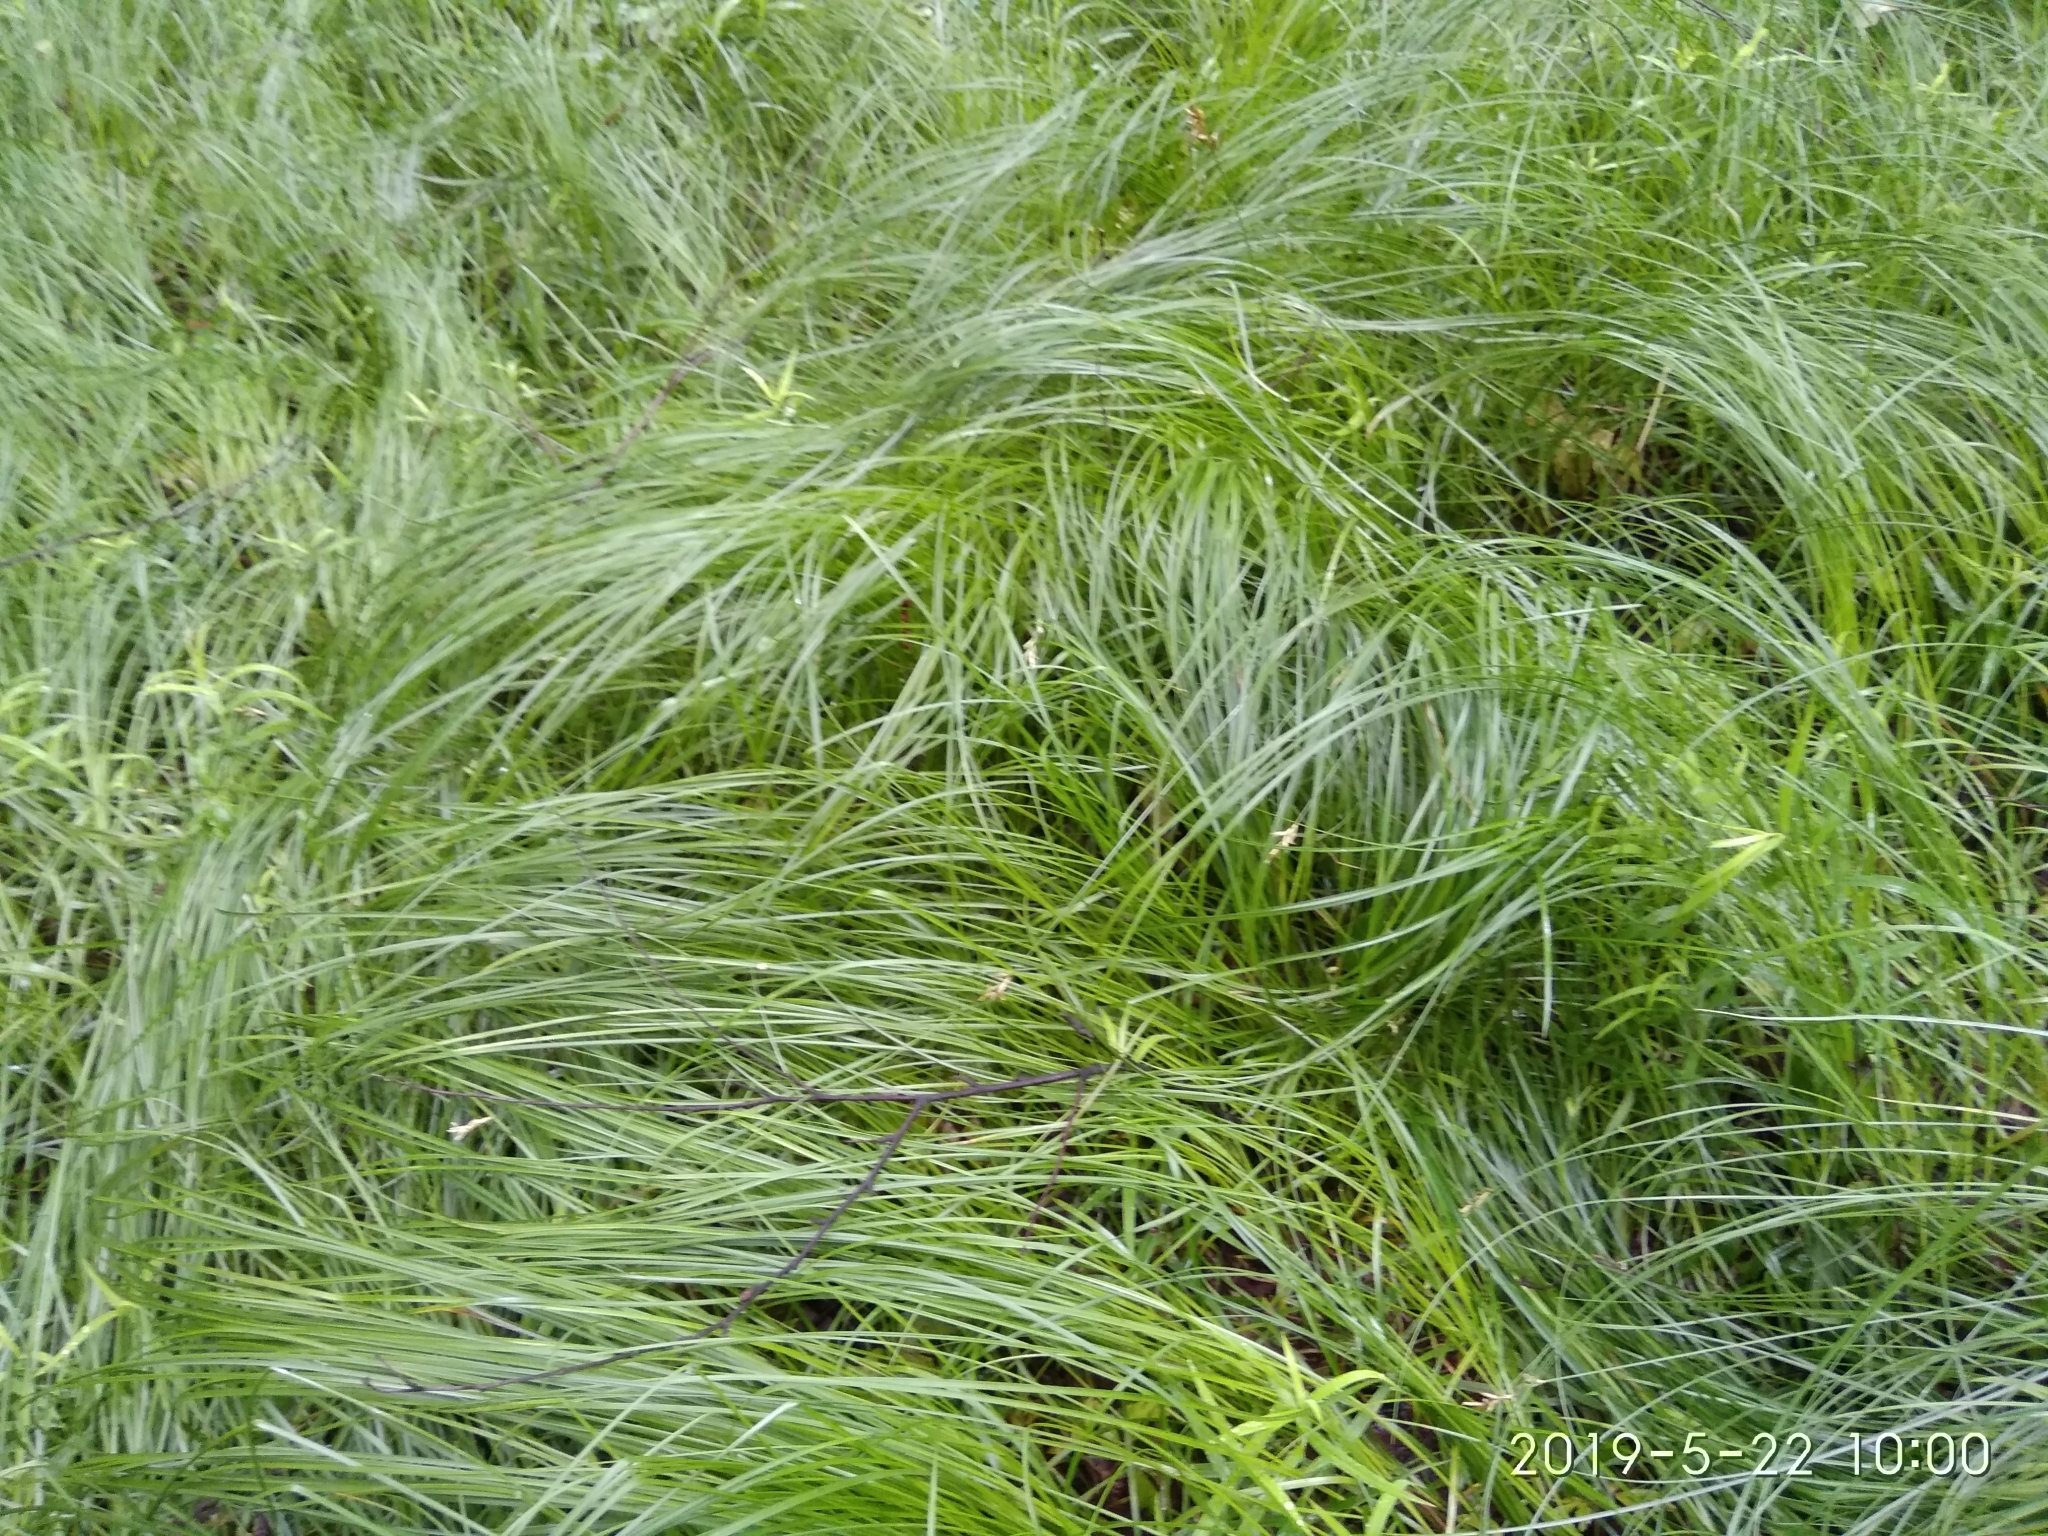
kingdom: Plantae
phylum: Tracheophyta
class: Liliopsida
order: Poales
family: Cyperaceae
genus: Carex
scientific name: Carex brizoides
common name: Quaking-grass sedge
